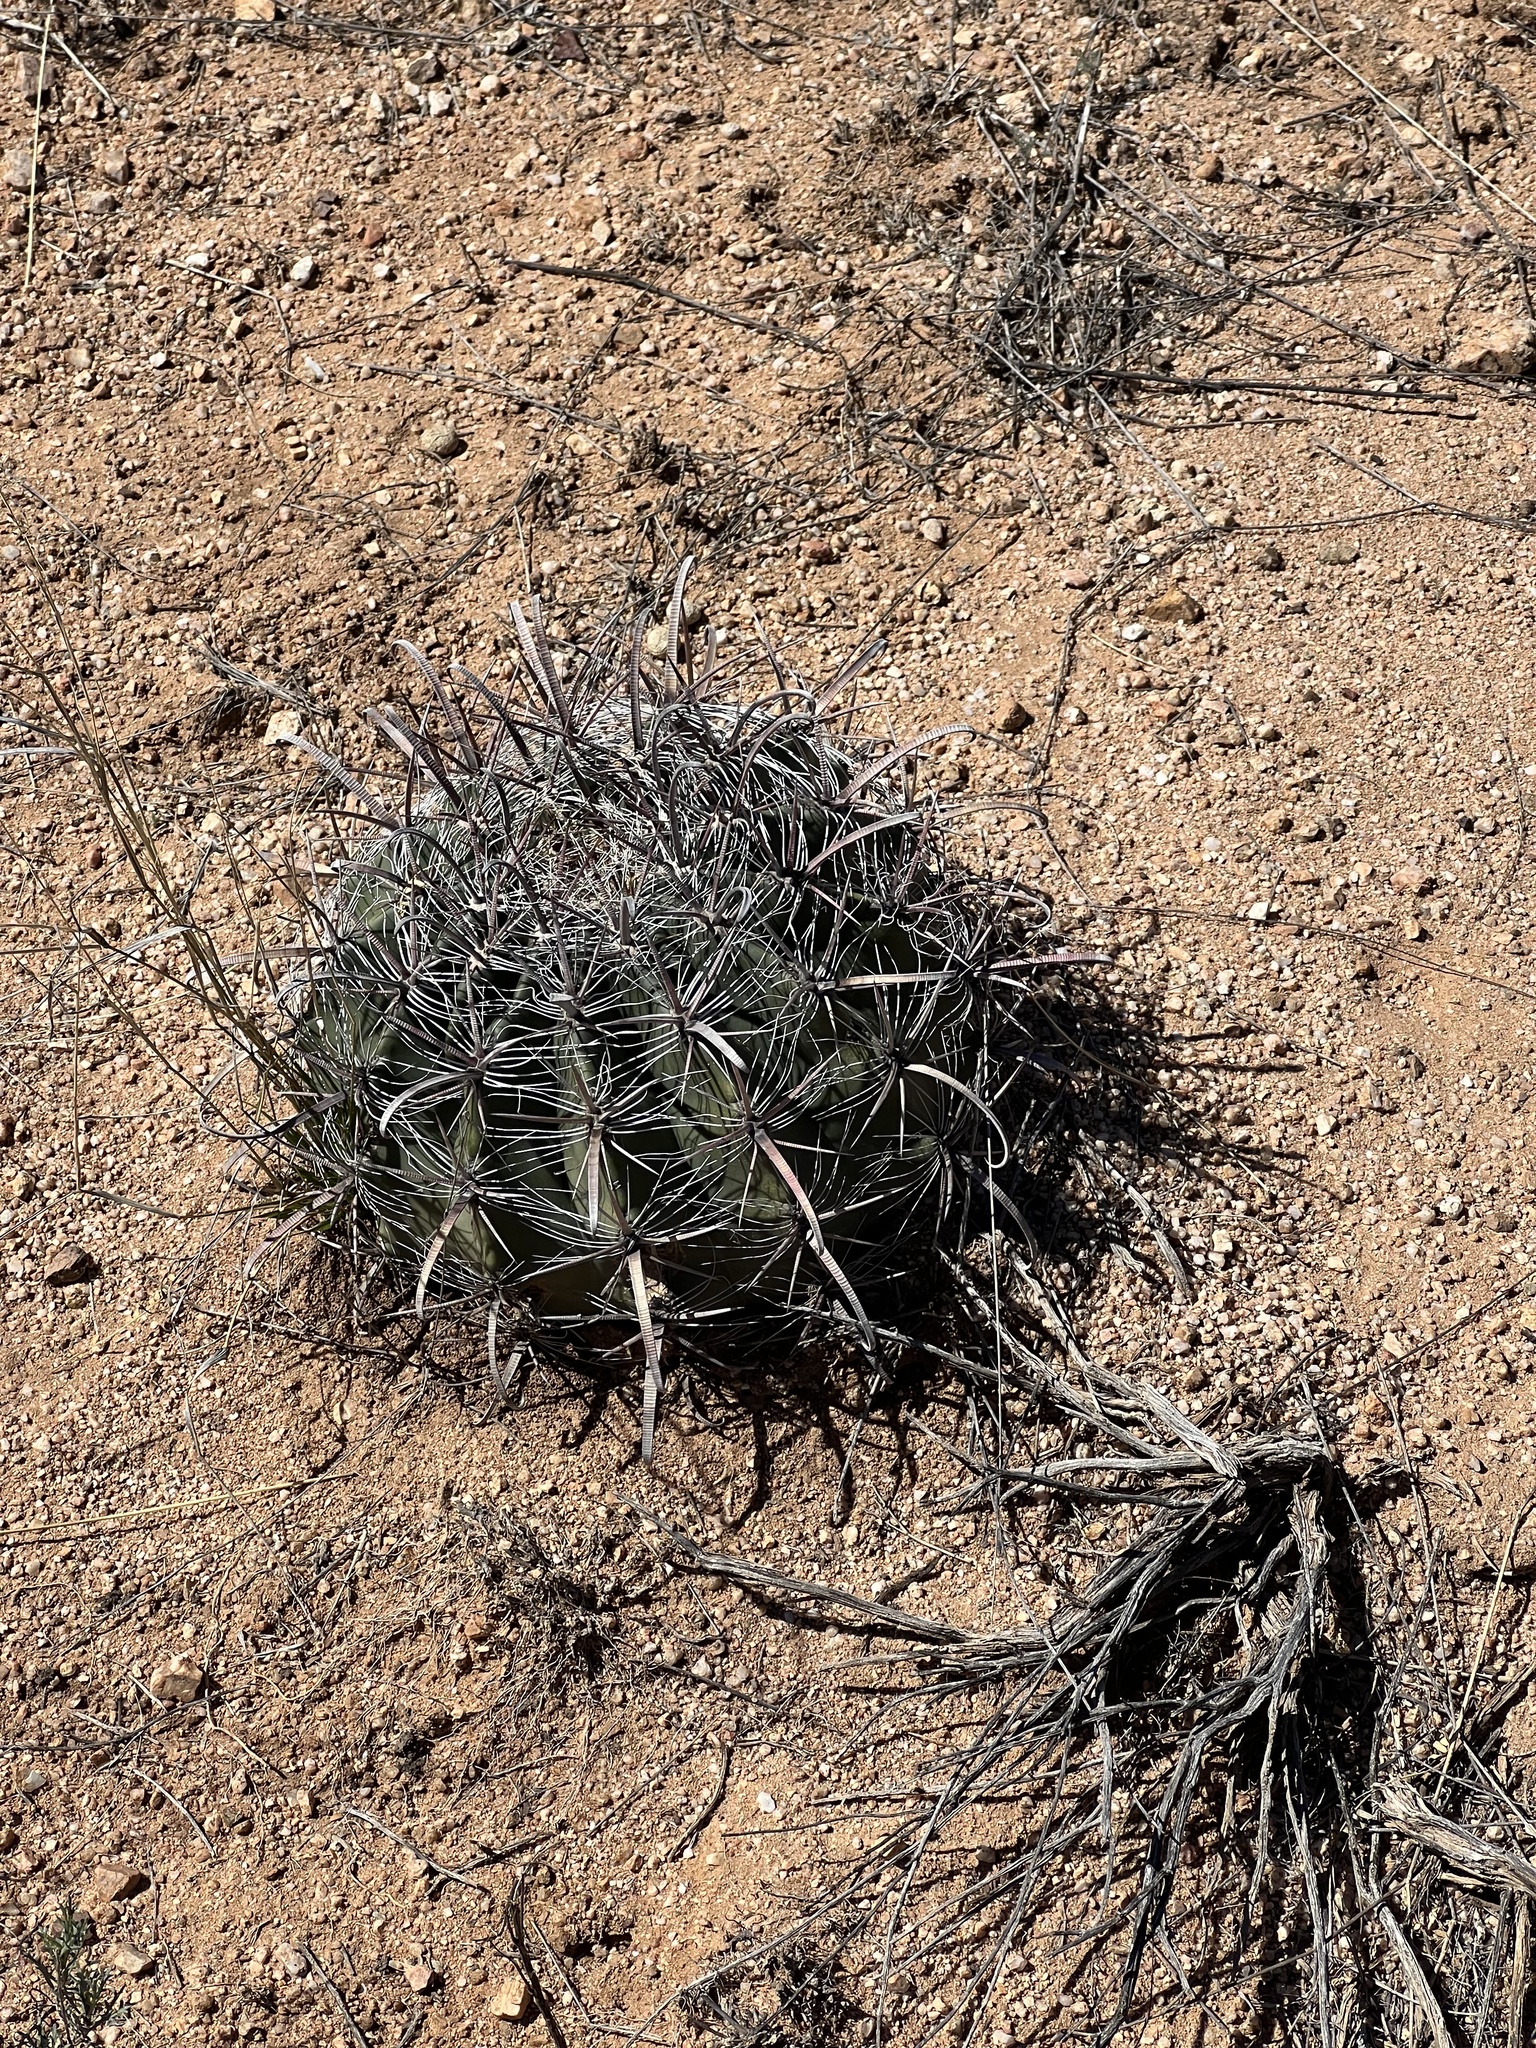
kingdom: Plantae
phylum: Tracheophyta
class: Magnoliopsida
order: Caryophyllales
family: Cactaceae
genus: Ferocactus
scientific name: Ferocactus wislizeni
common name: Candy barrel cactus
